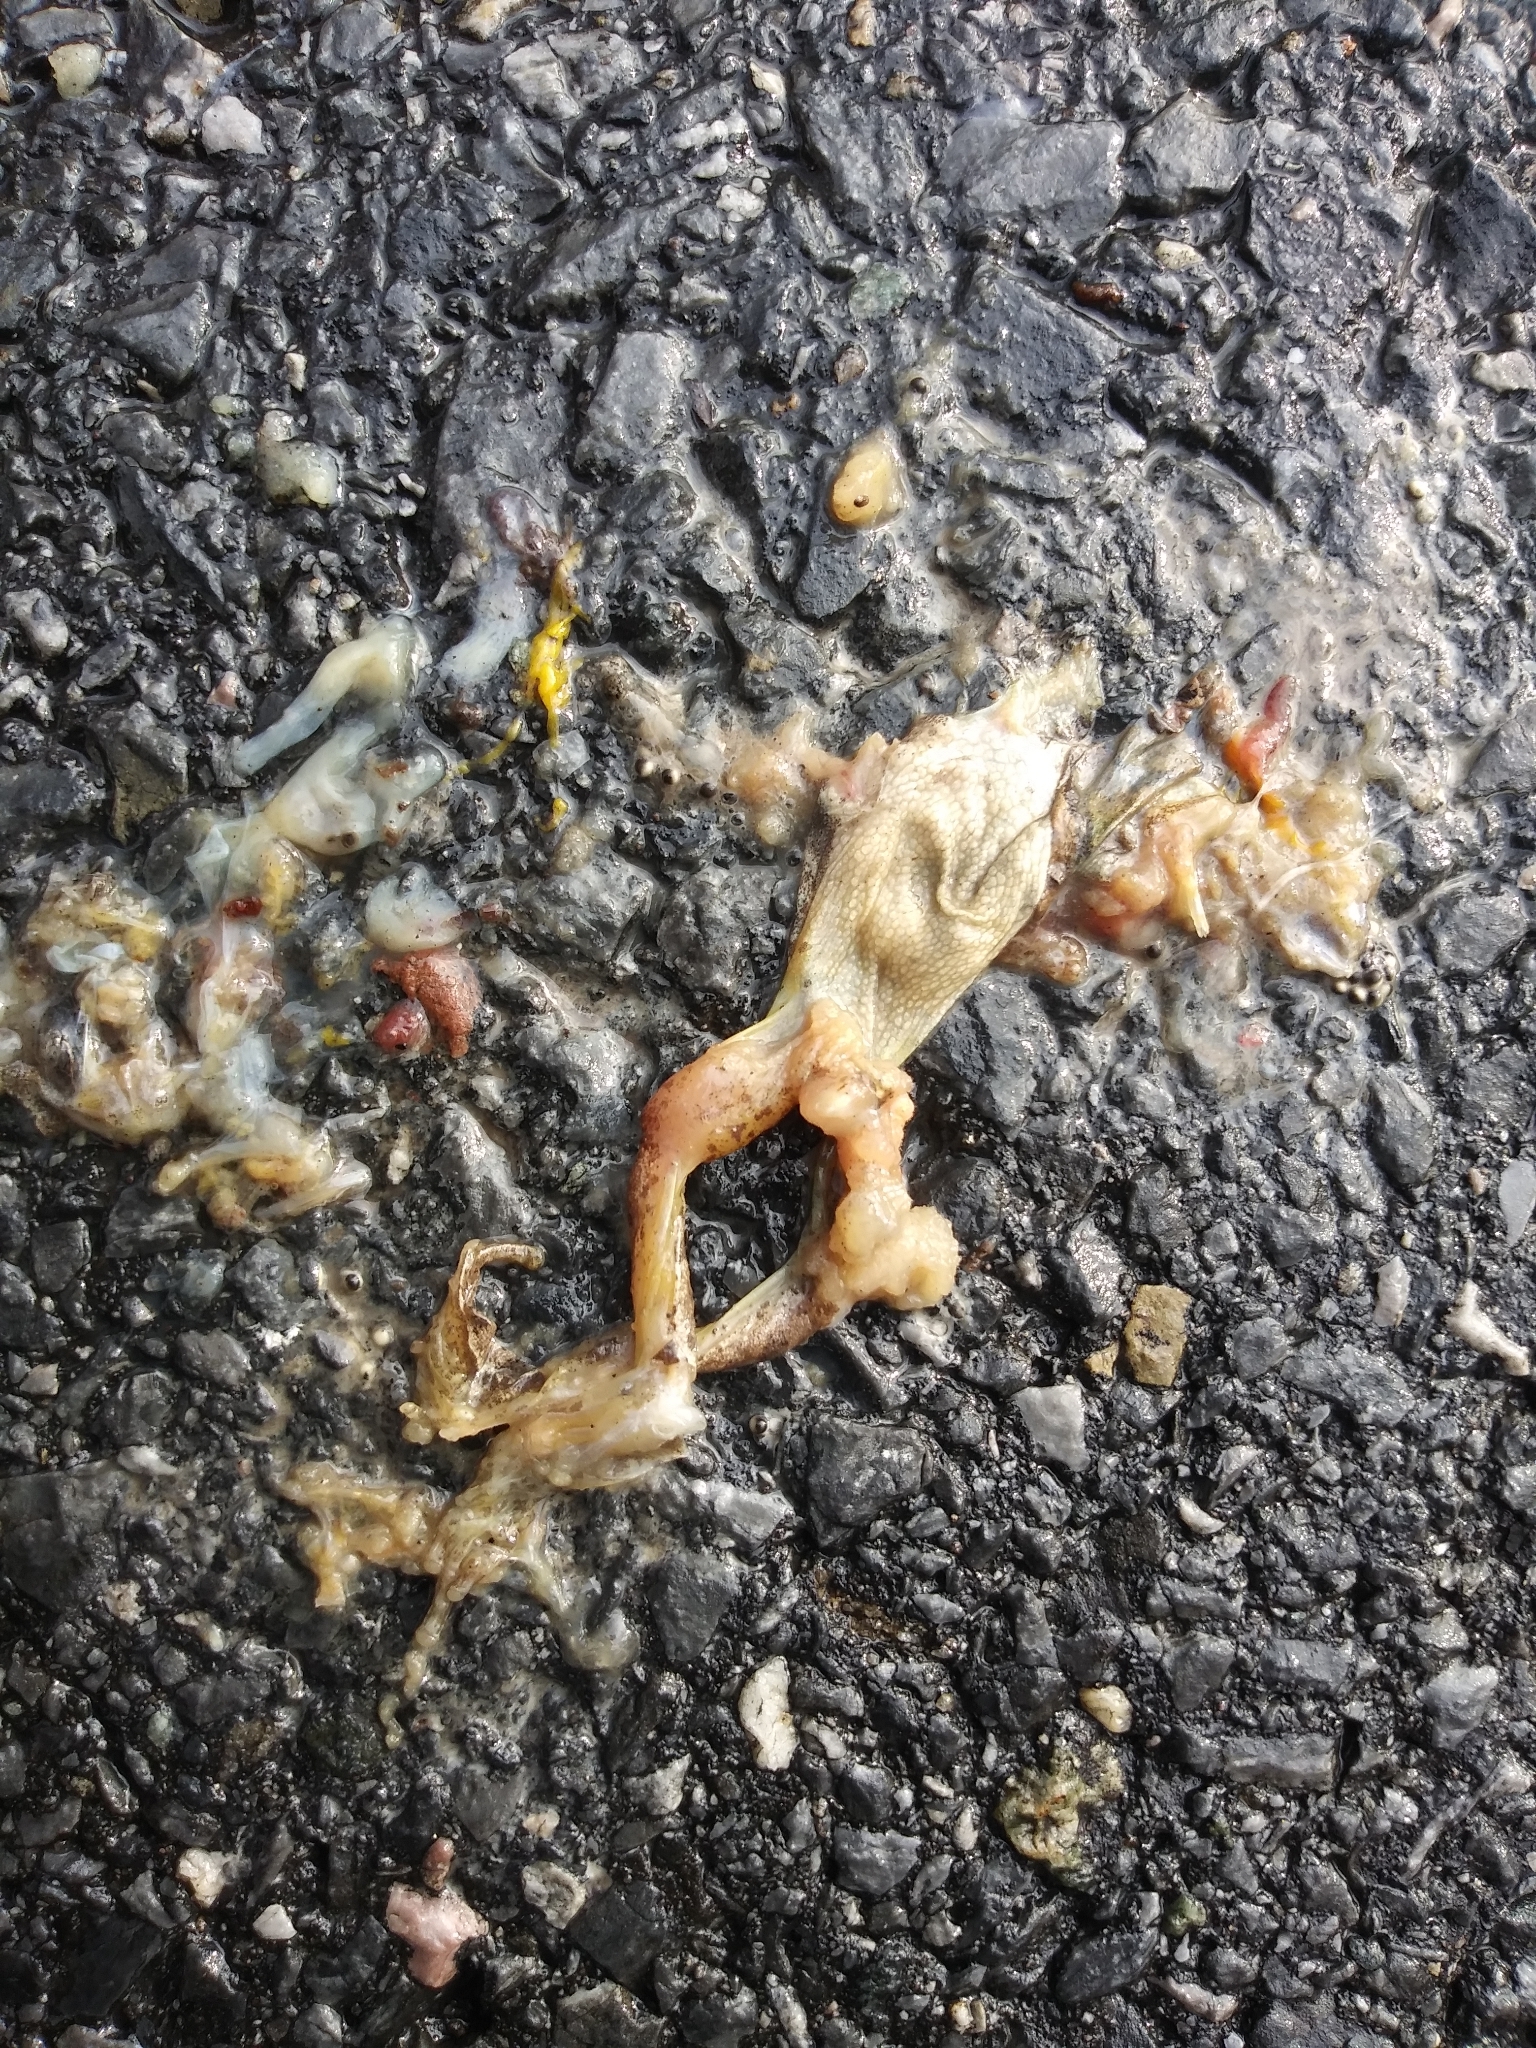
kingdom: Animalia
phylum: Chordata
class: Amphibia
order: Anura
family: Hylidae
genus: Pseudacris
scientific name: Pseudacris crucifer
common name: Spring peeper
